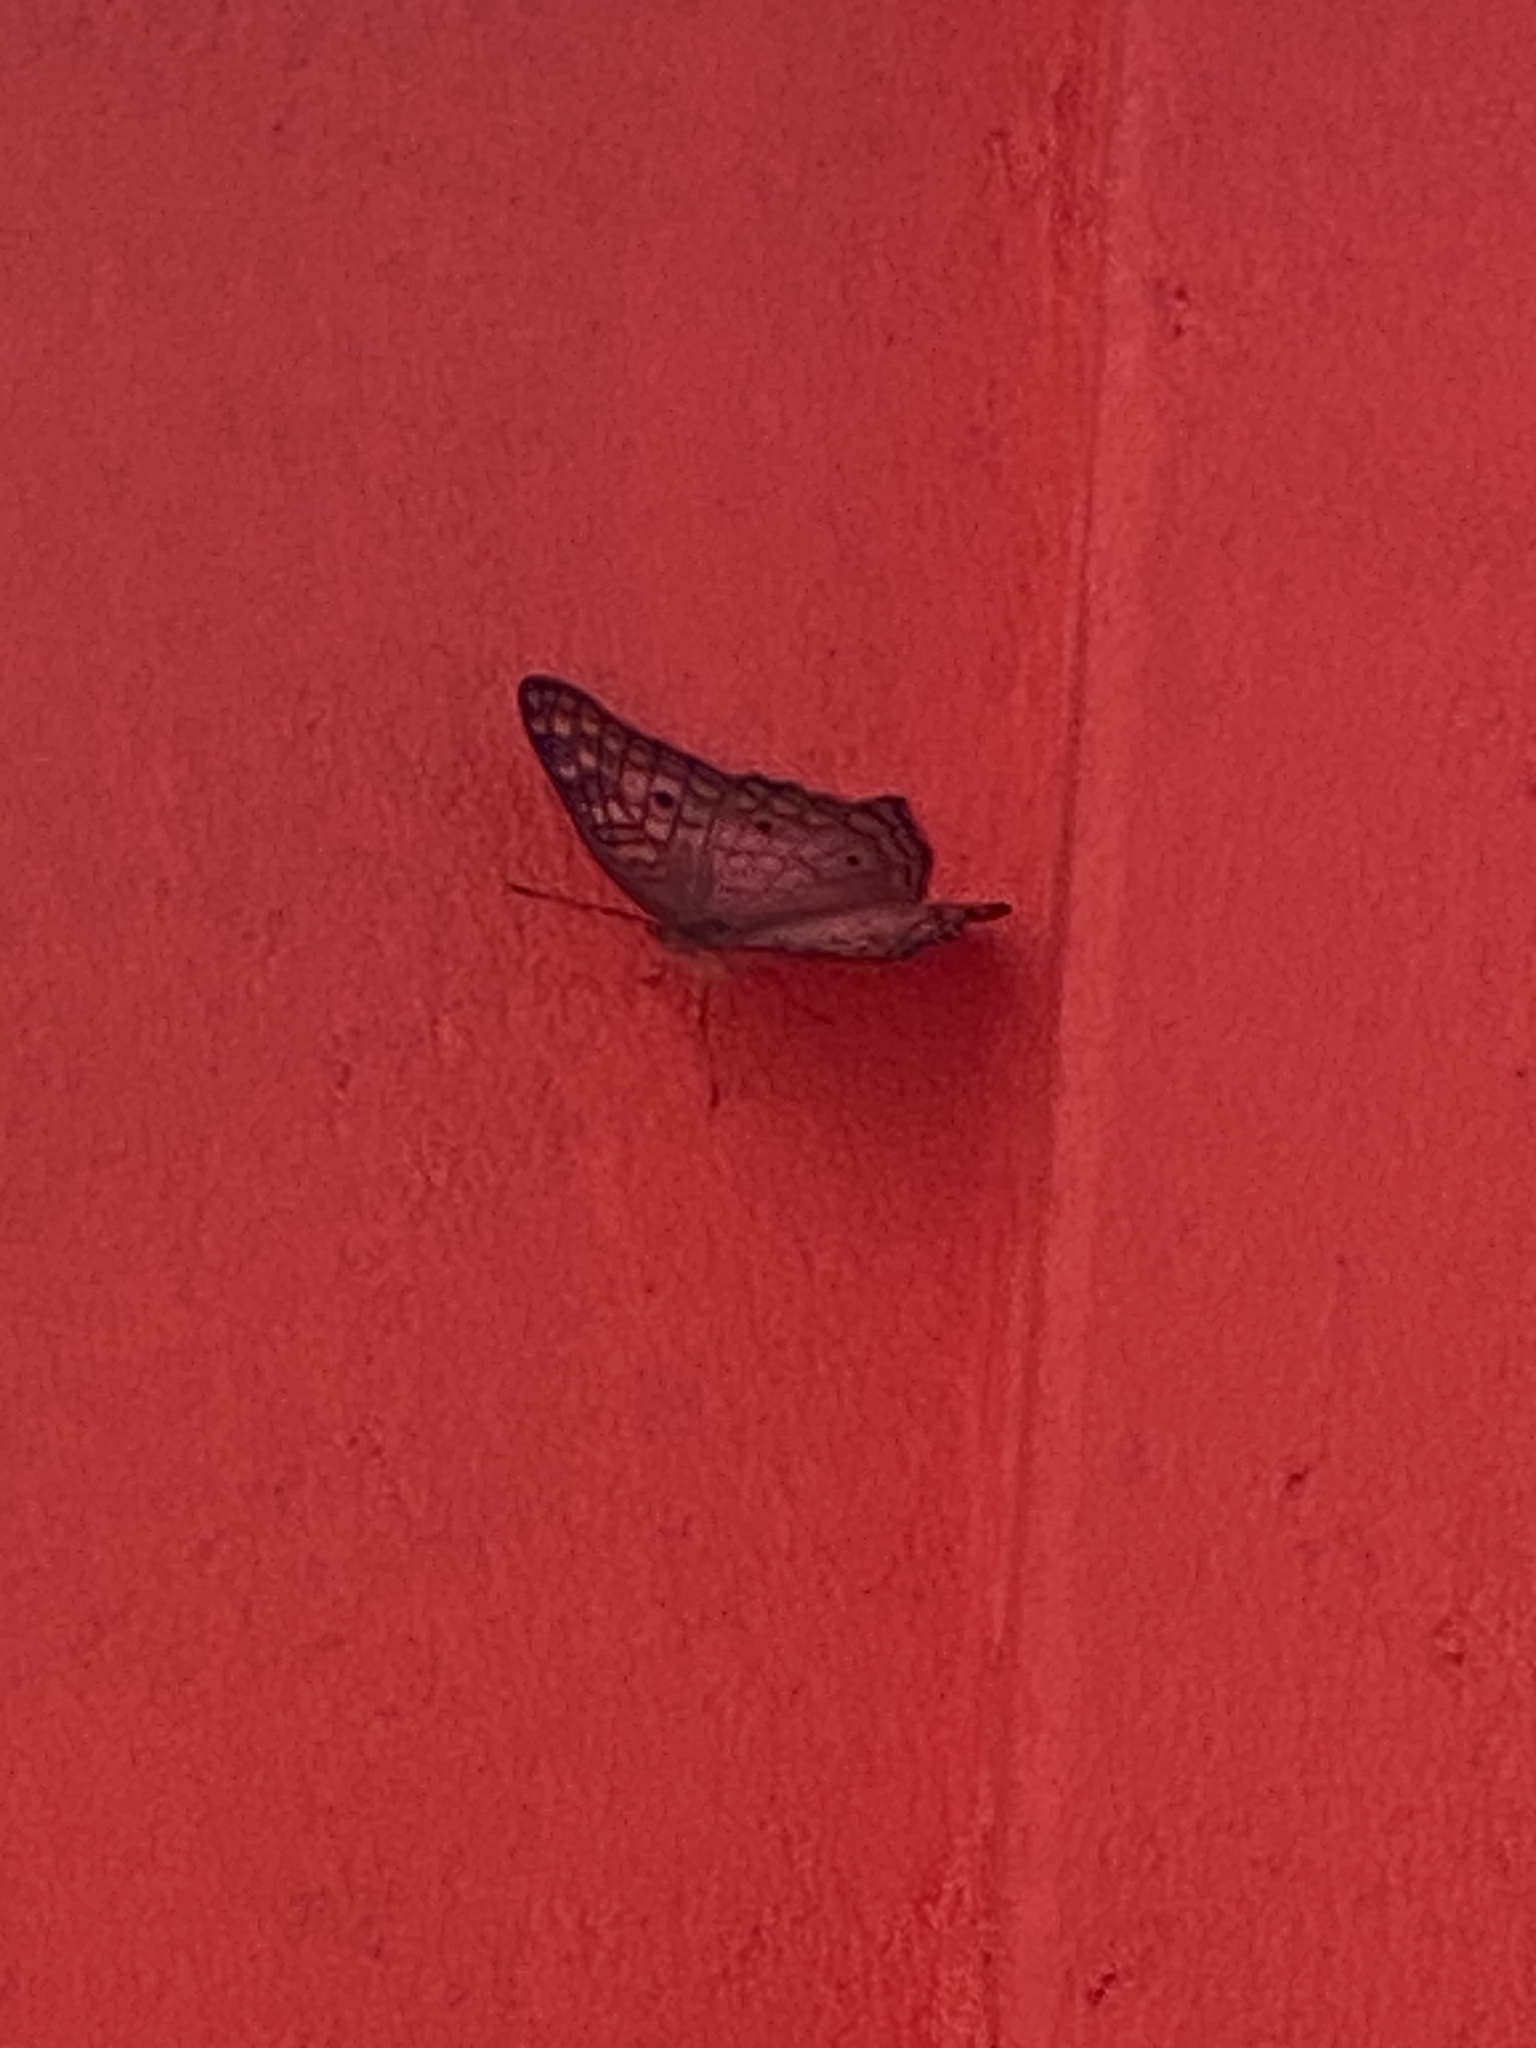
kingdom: Animalia
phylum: Arthropoda
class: Insecta
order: Lepidoptera
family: Nymphalidae
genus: Anartia
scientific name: Anartia jatrophae
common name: White peacock
